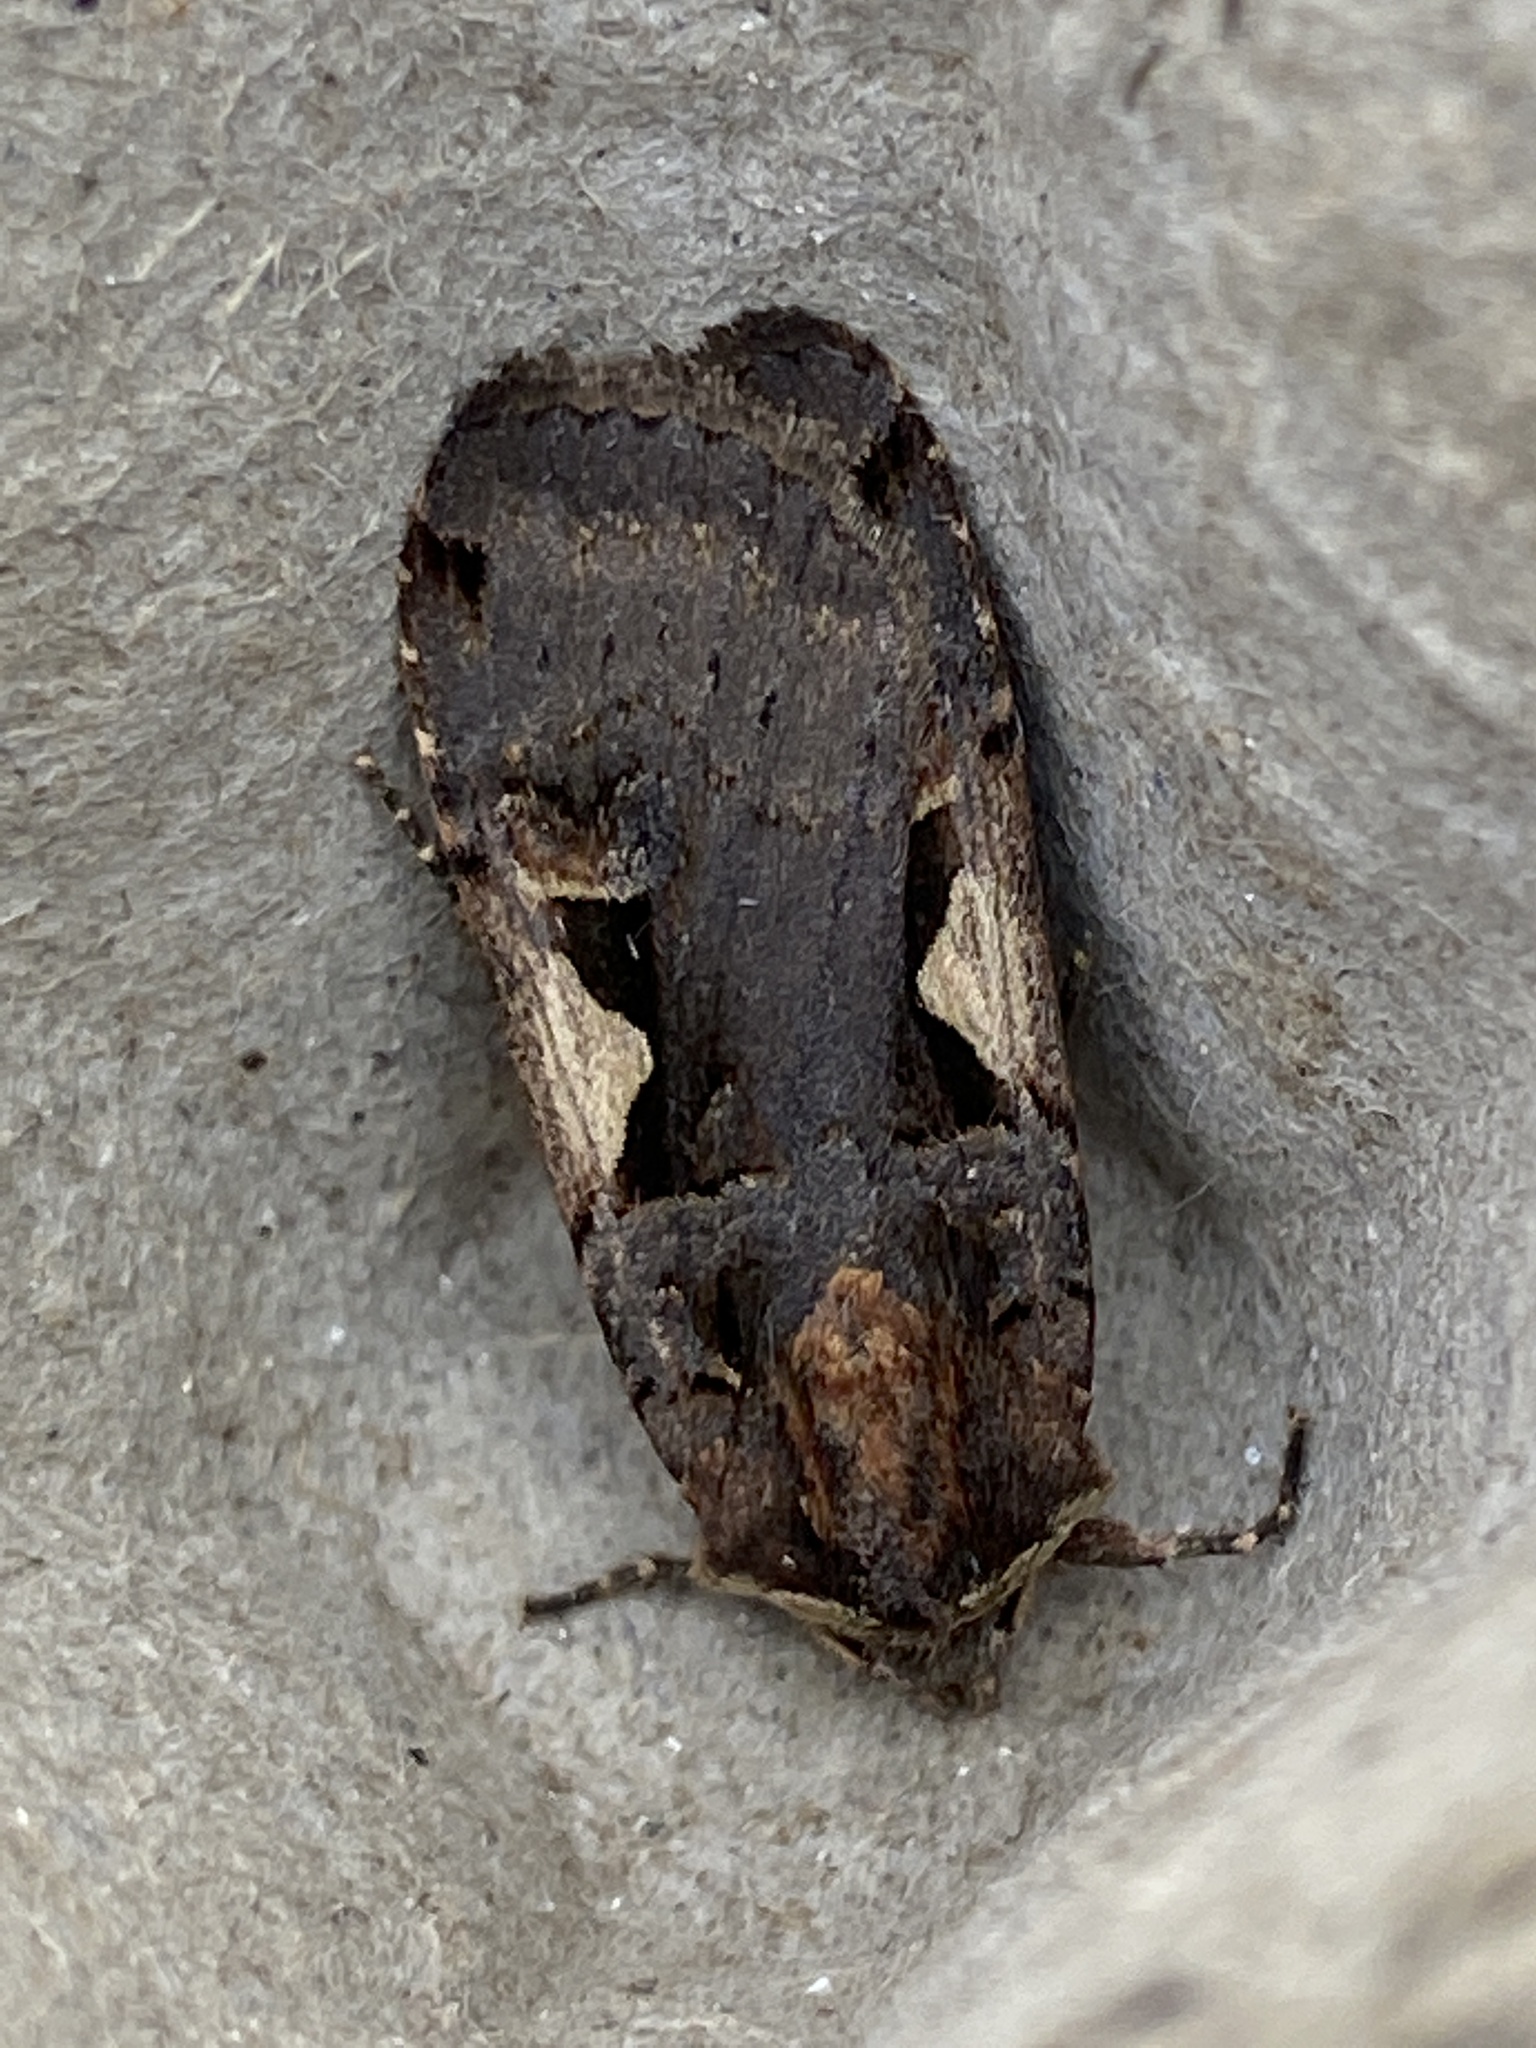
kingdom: Animalia
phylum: Arthropoda
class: Insecta
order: Lepidoptera
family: Noctuidae
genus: Xestia
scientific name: Xestia c-nigrum
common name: Setaceous hebrew character
